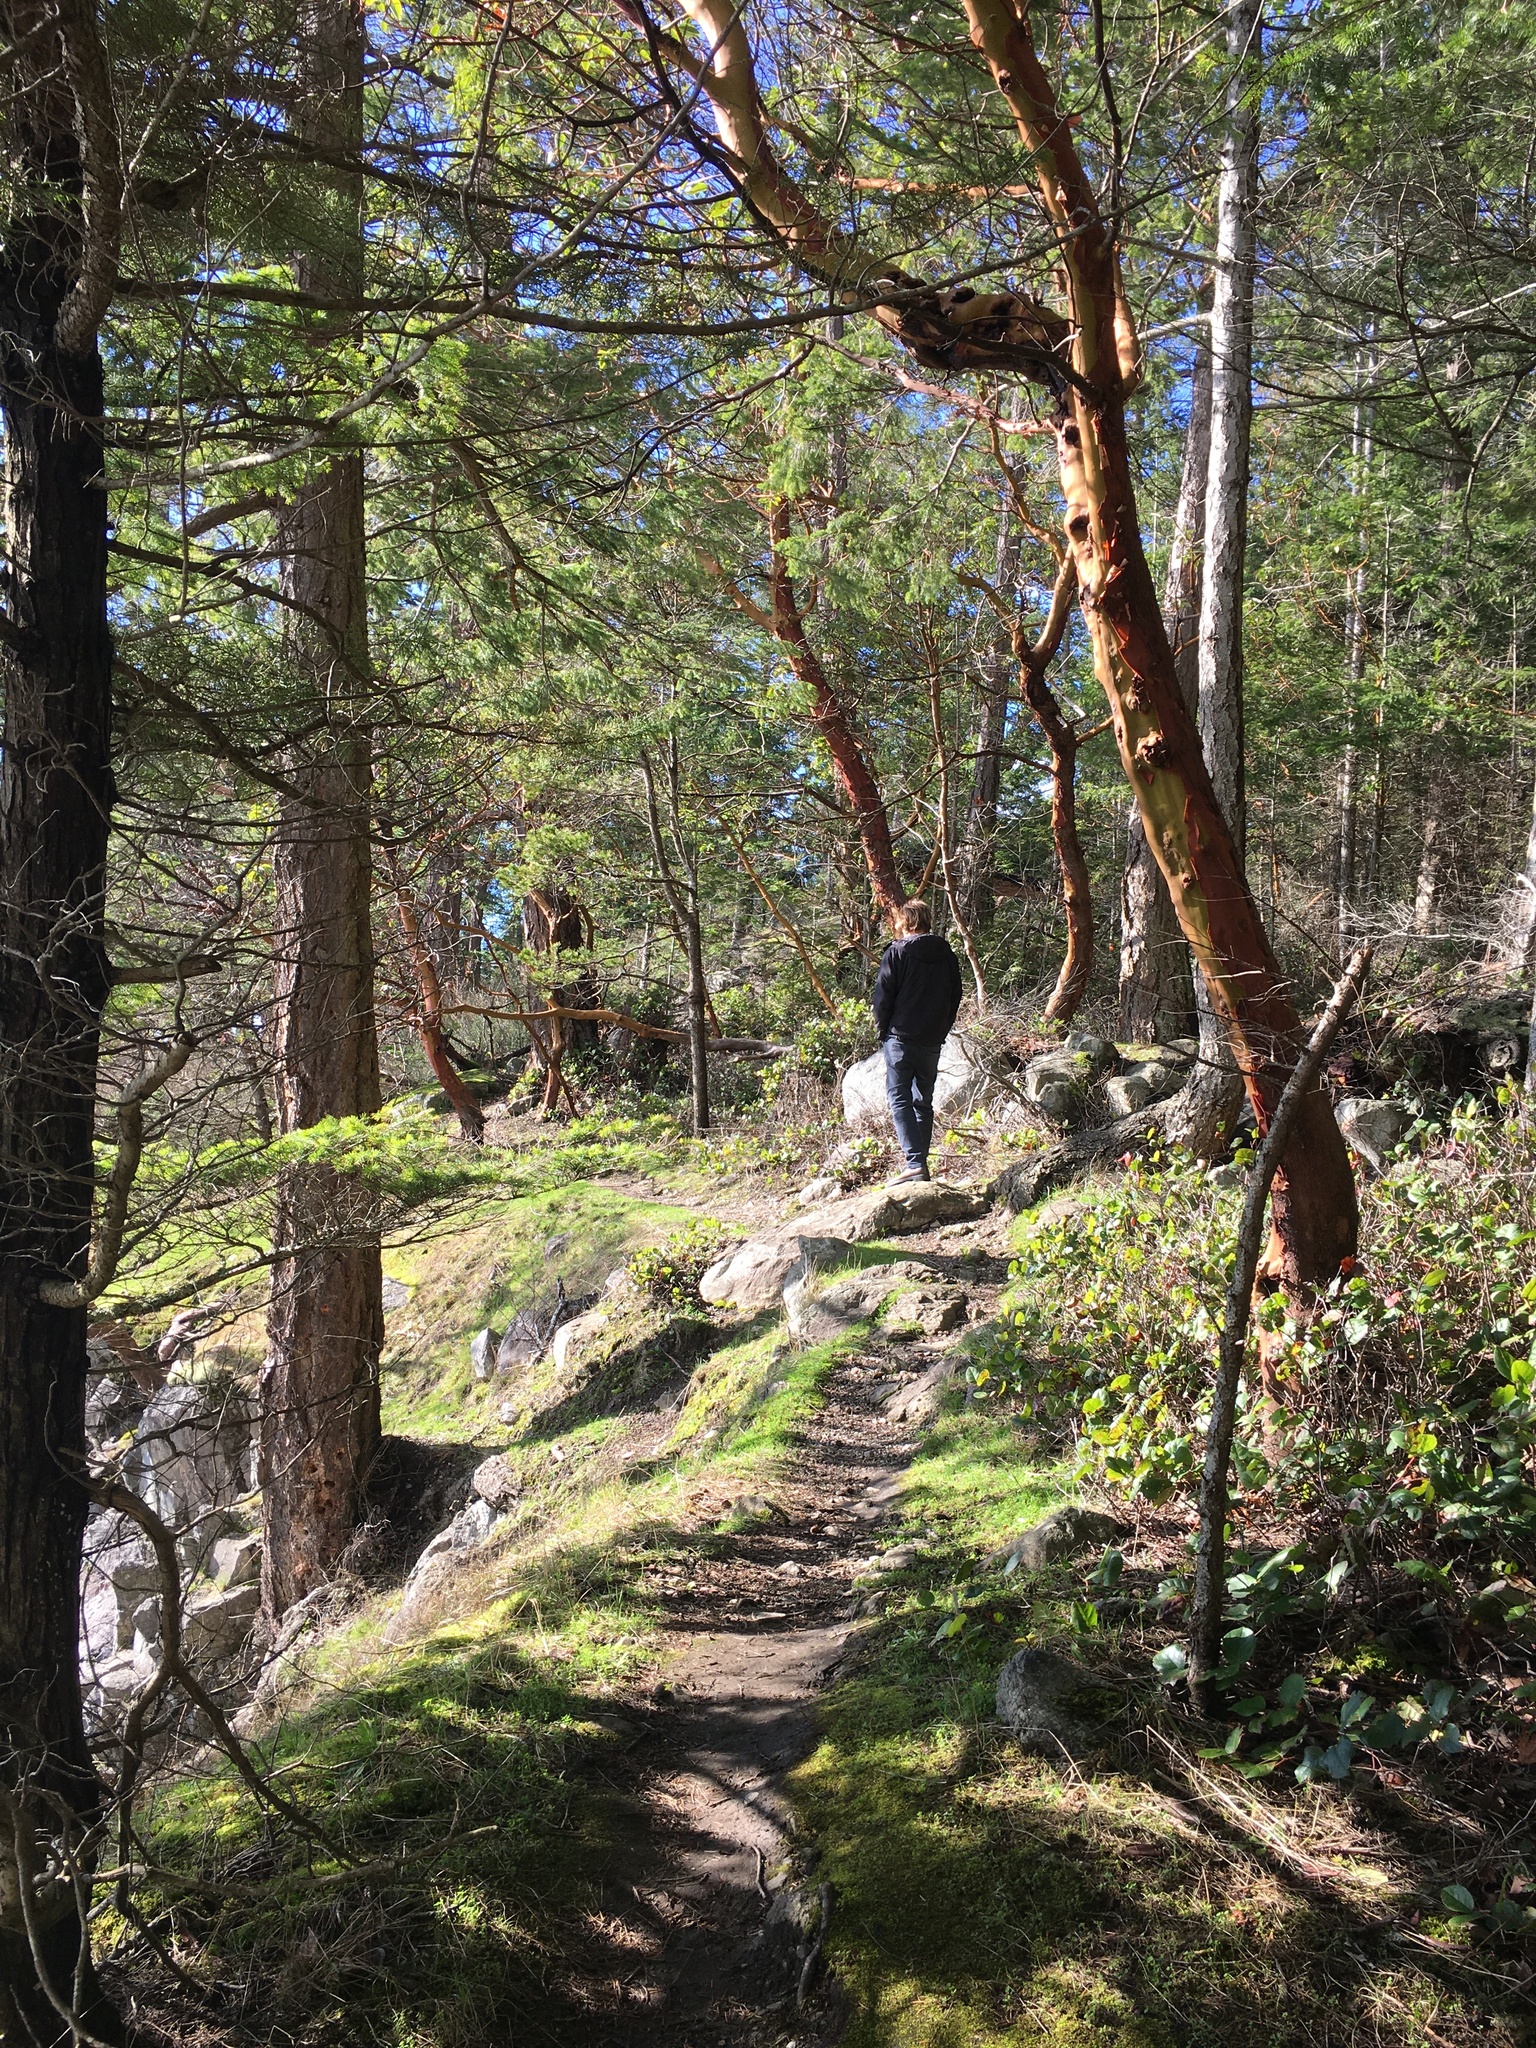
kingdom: Plantae
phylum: Tracheophyta
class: Magnoliopsida
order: Ericales
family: Ericaceae
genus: Arbutus
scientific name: Arbutus menziesii
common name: Pacific madrone
